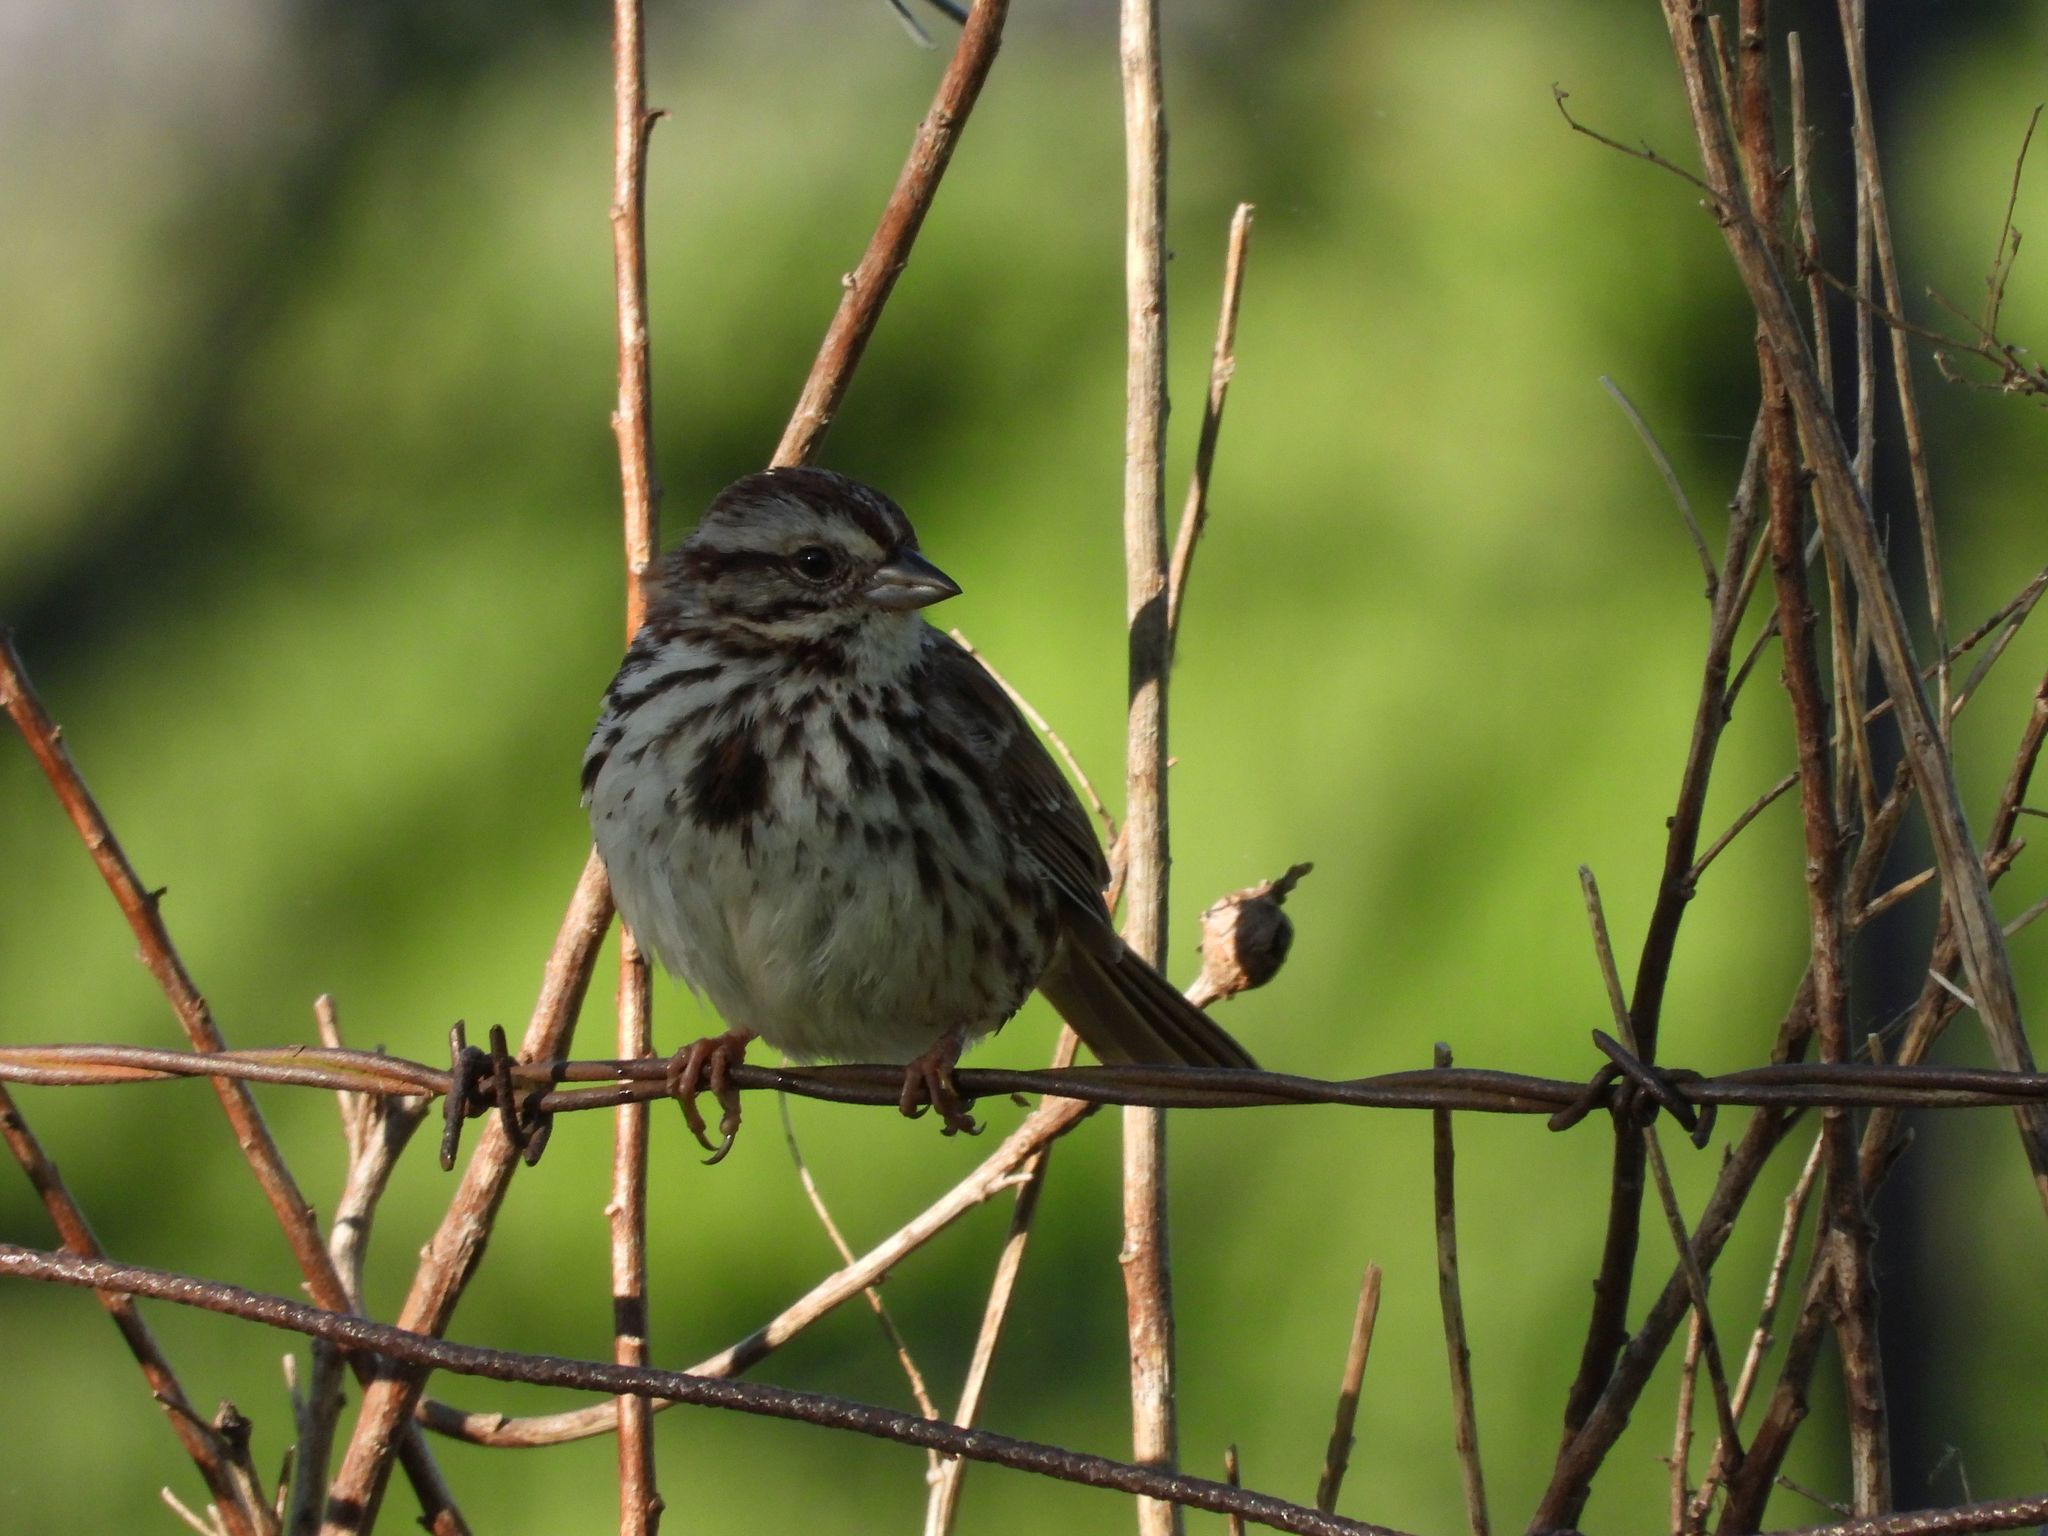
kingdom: Animalia
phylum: Chordata
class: Aves
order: Passeriformes
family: Passerellidae
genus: Melospiza
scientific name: Melospiza melodia
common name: Song sparrow
